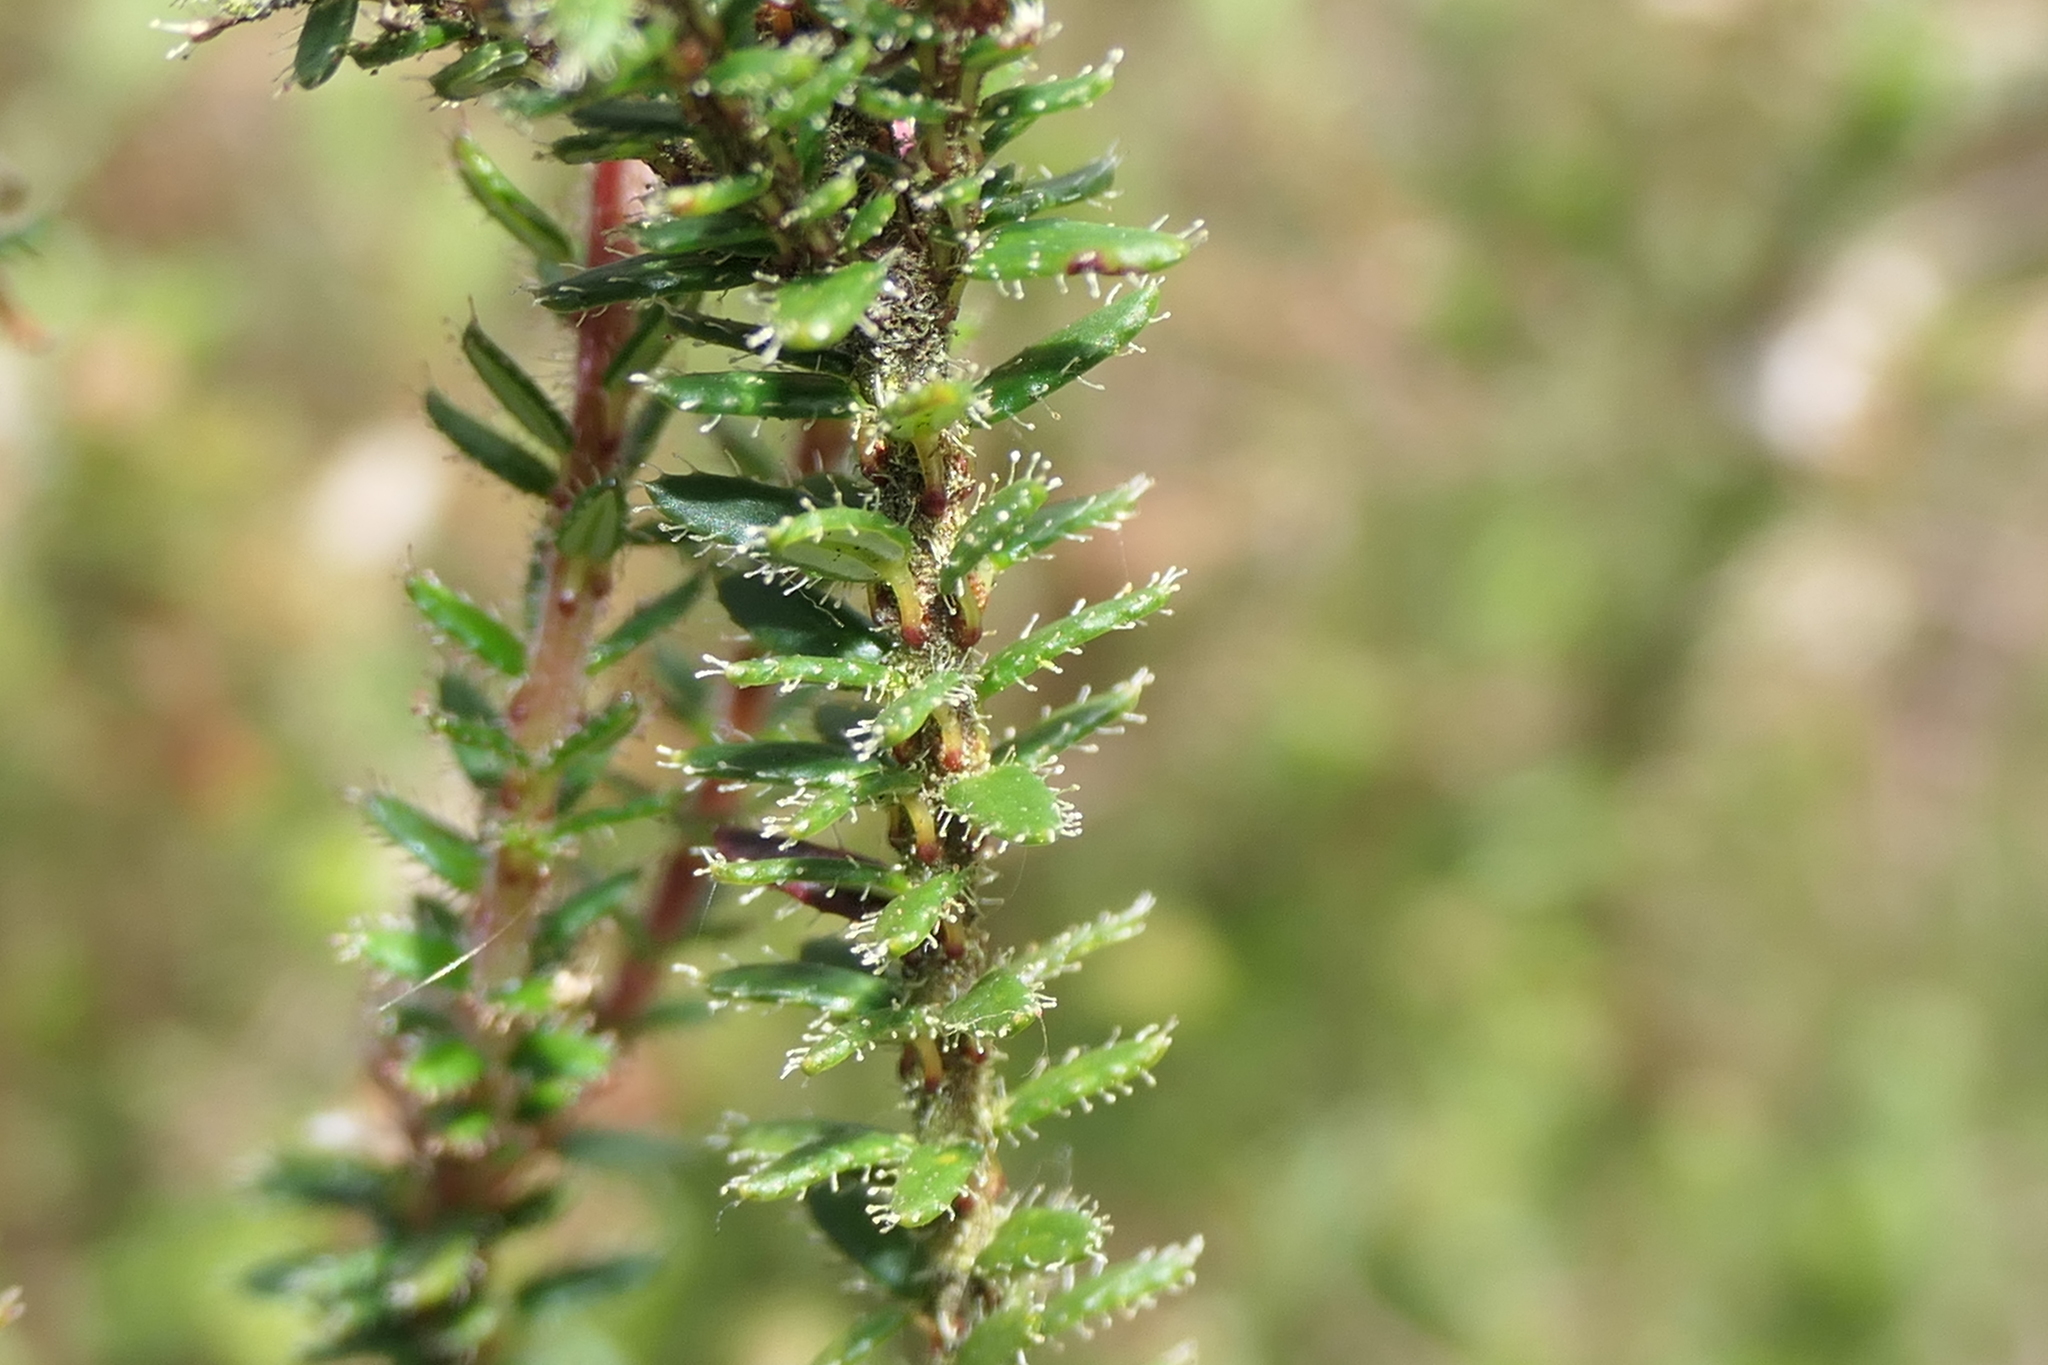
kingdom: Plantae
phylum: Tracheophyta
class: Magnoliopsida
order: Ericales
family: Ericaceae
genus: Erica
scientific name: Erica mackayana
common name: Mackay's heath
